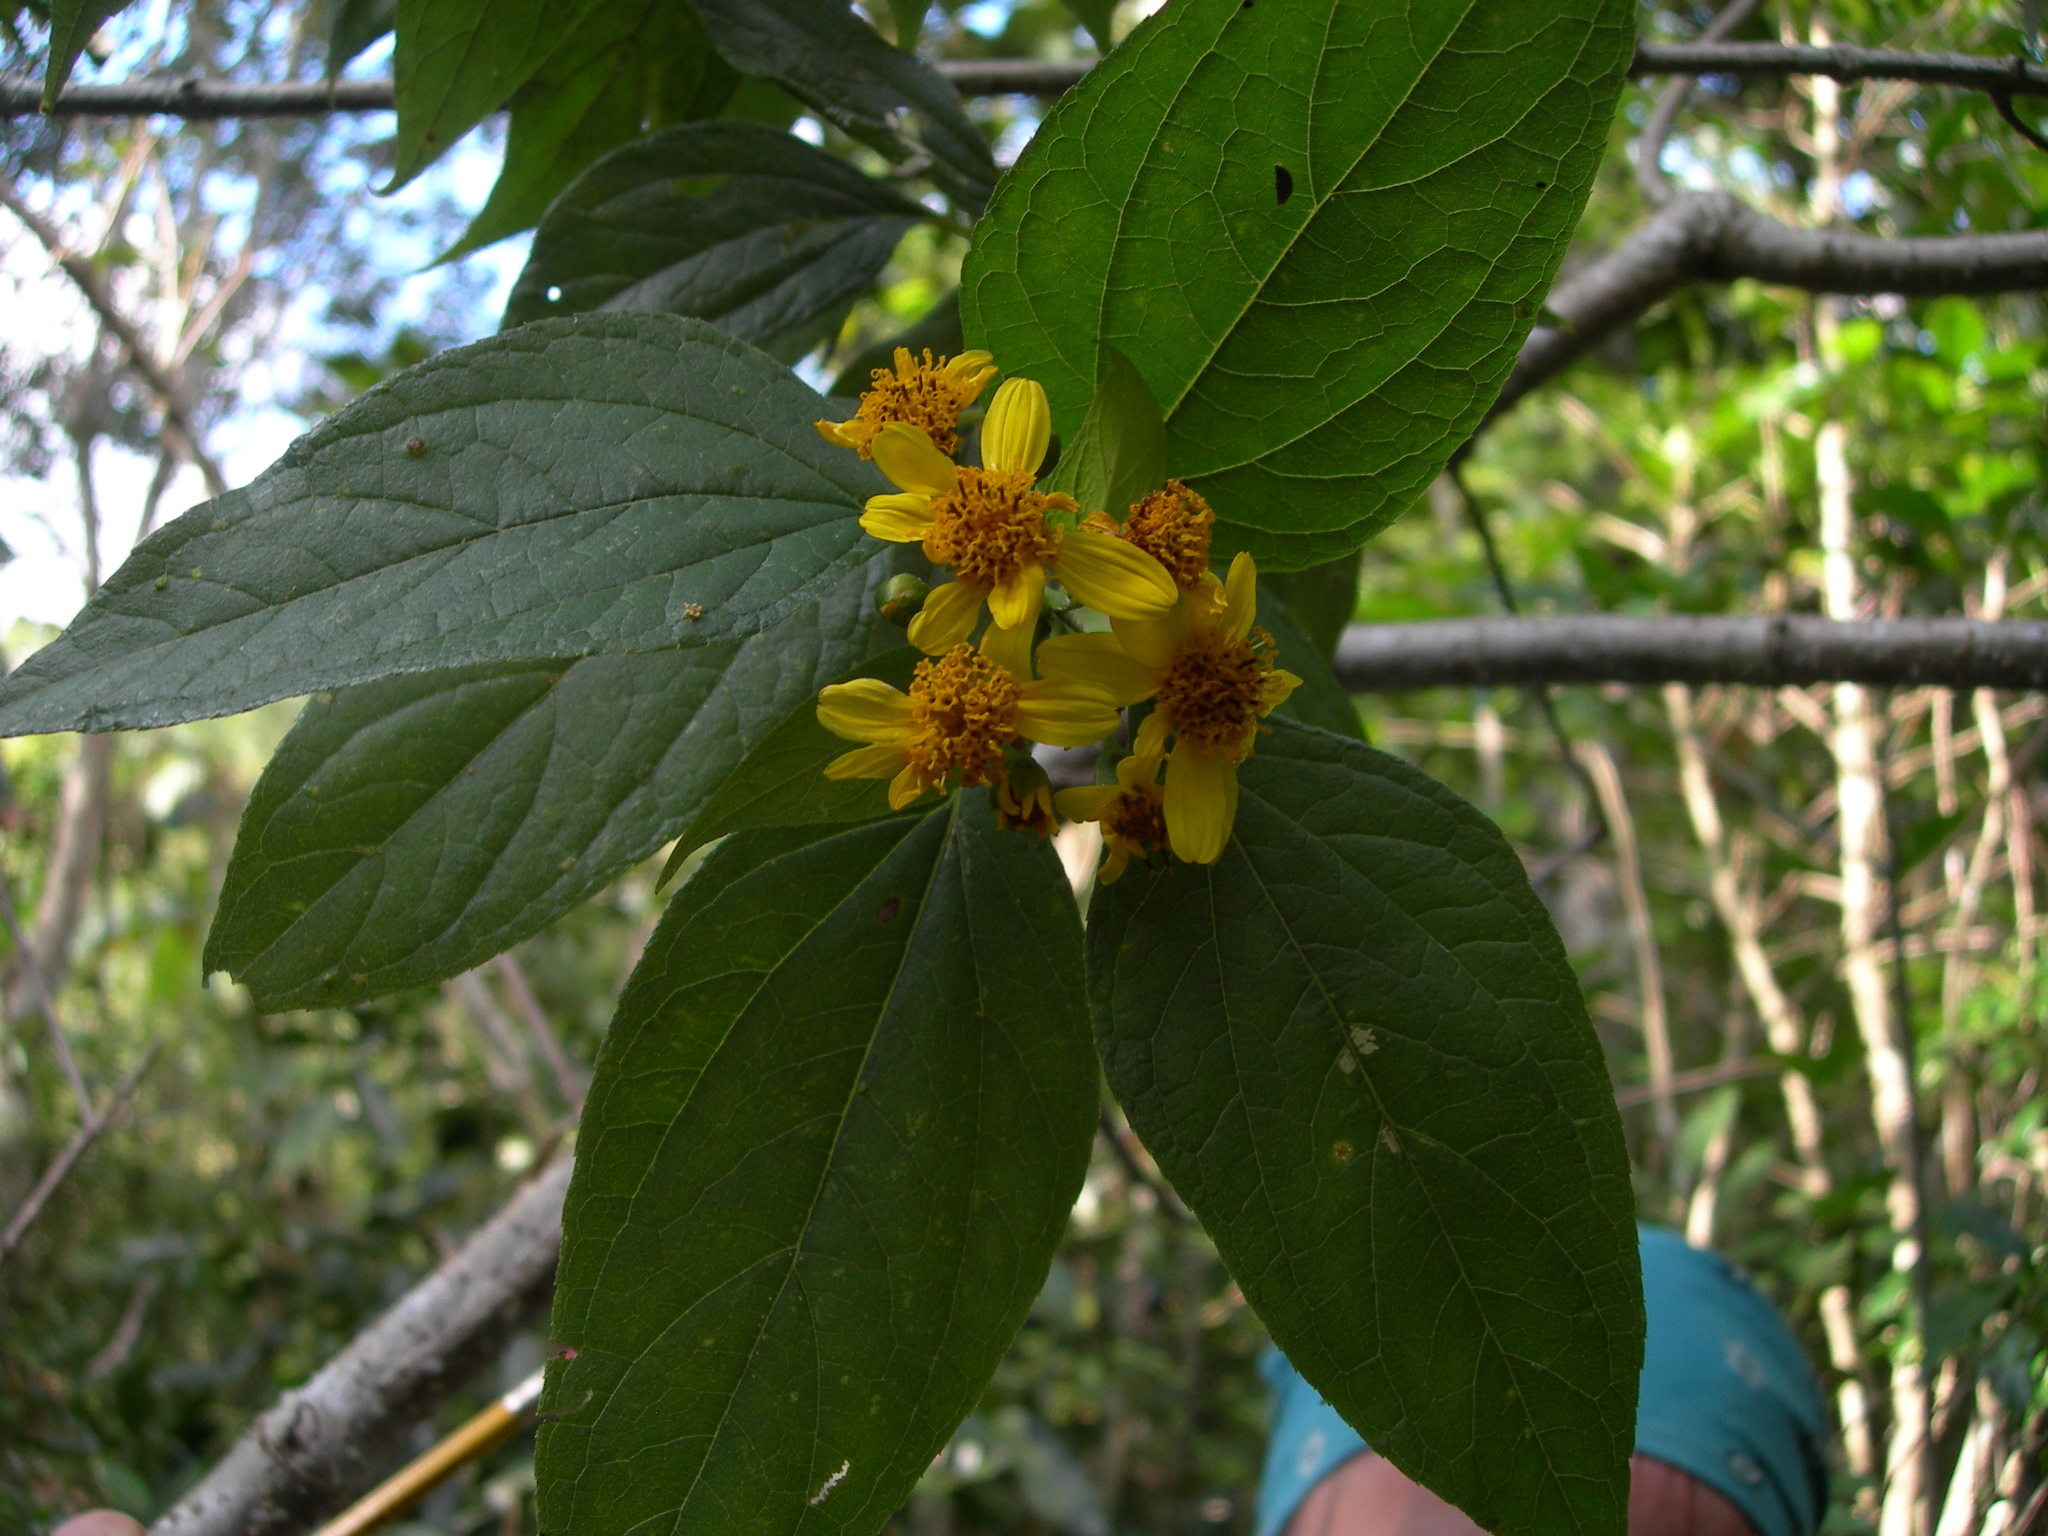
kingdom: Plantae
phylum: Tracheophyta
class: Magnoliopsida
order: Asterales
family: Asteraceae
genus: Perymenium
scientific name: Perymenium grande
